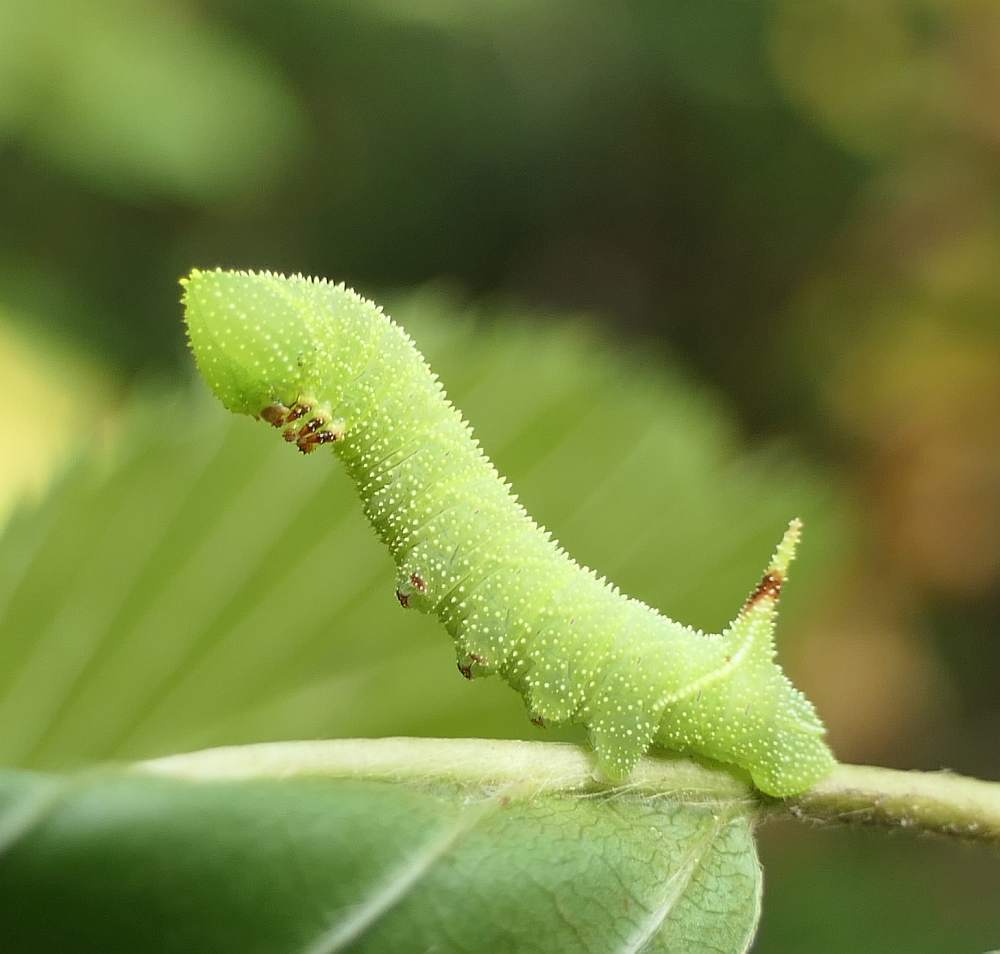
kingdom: Animalia
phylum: Arthropoda
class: Insecta
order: Lepidoptera
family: Sphingidae
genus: Paonias
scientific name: Paonias excaecata
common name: Blind-eyed sphinx
